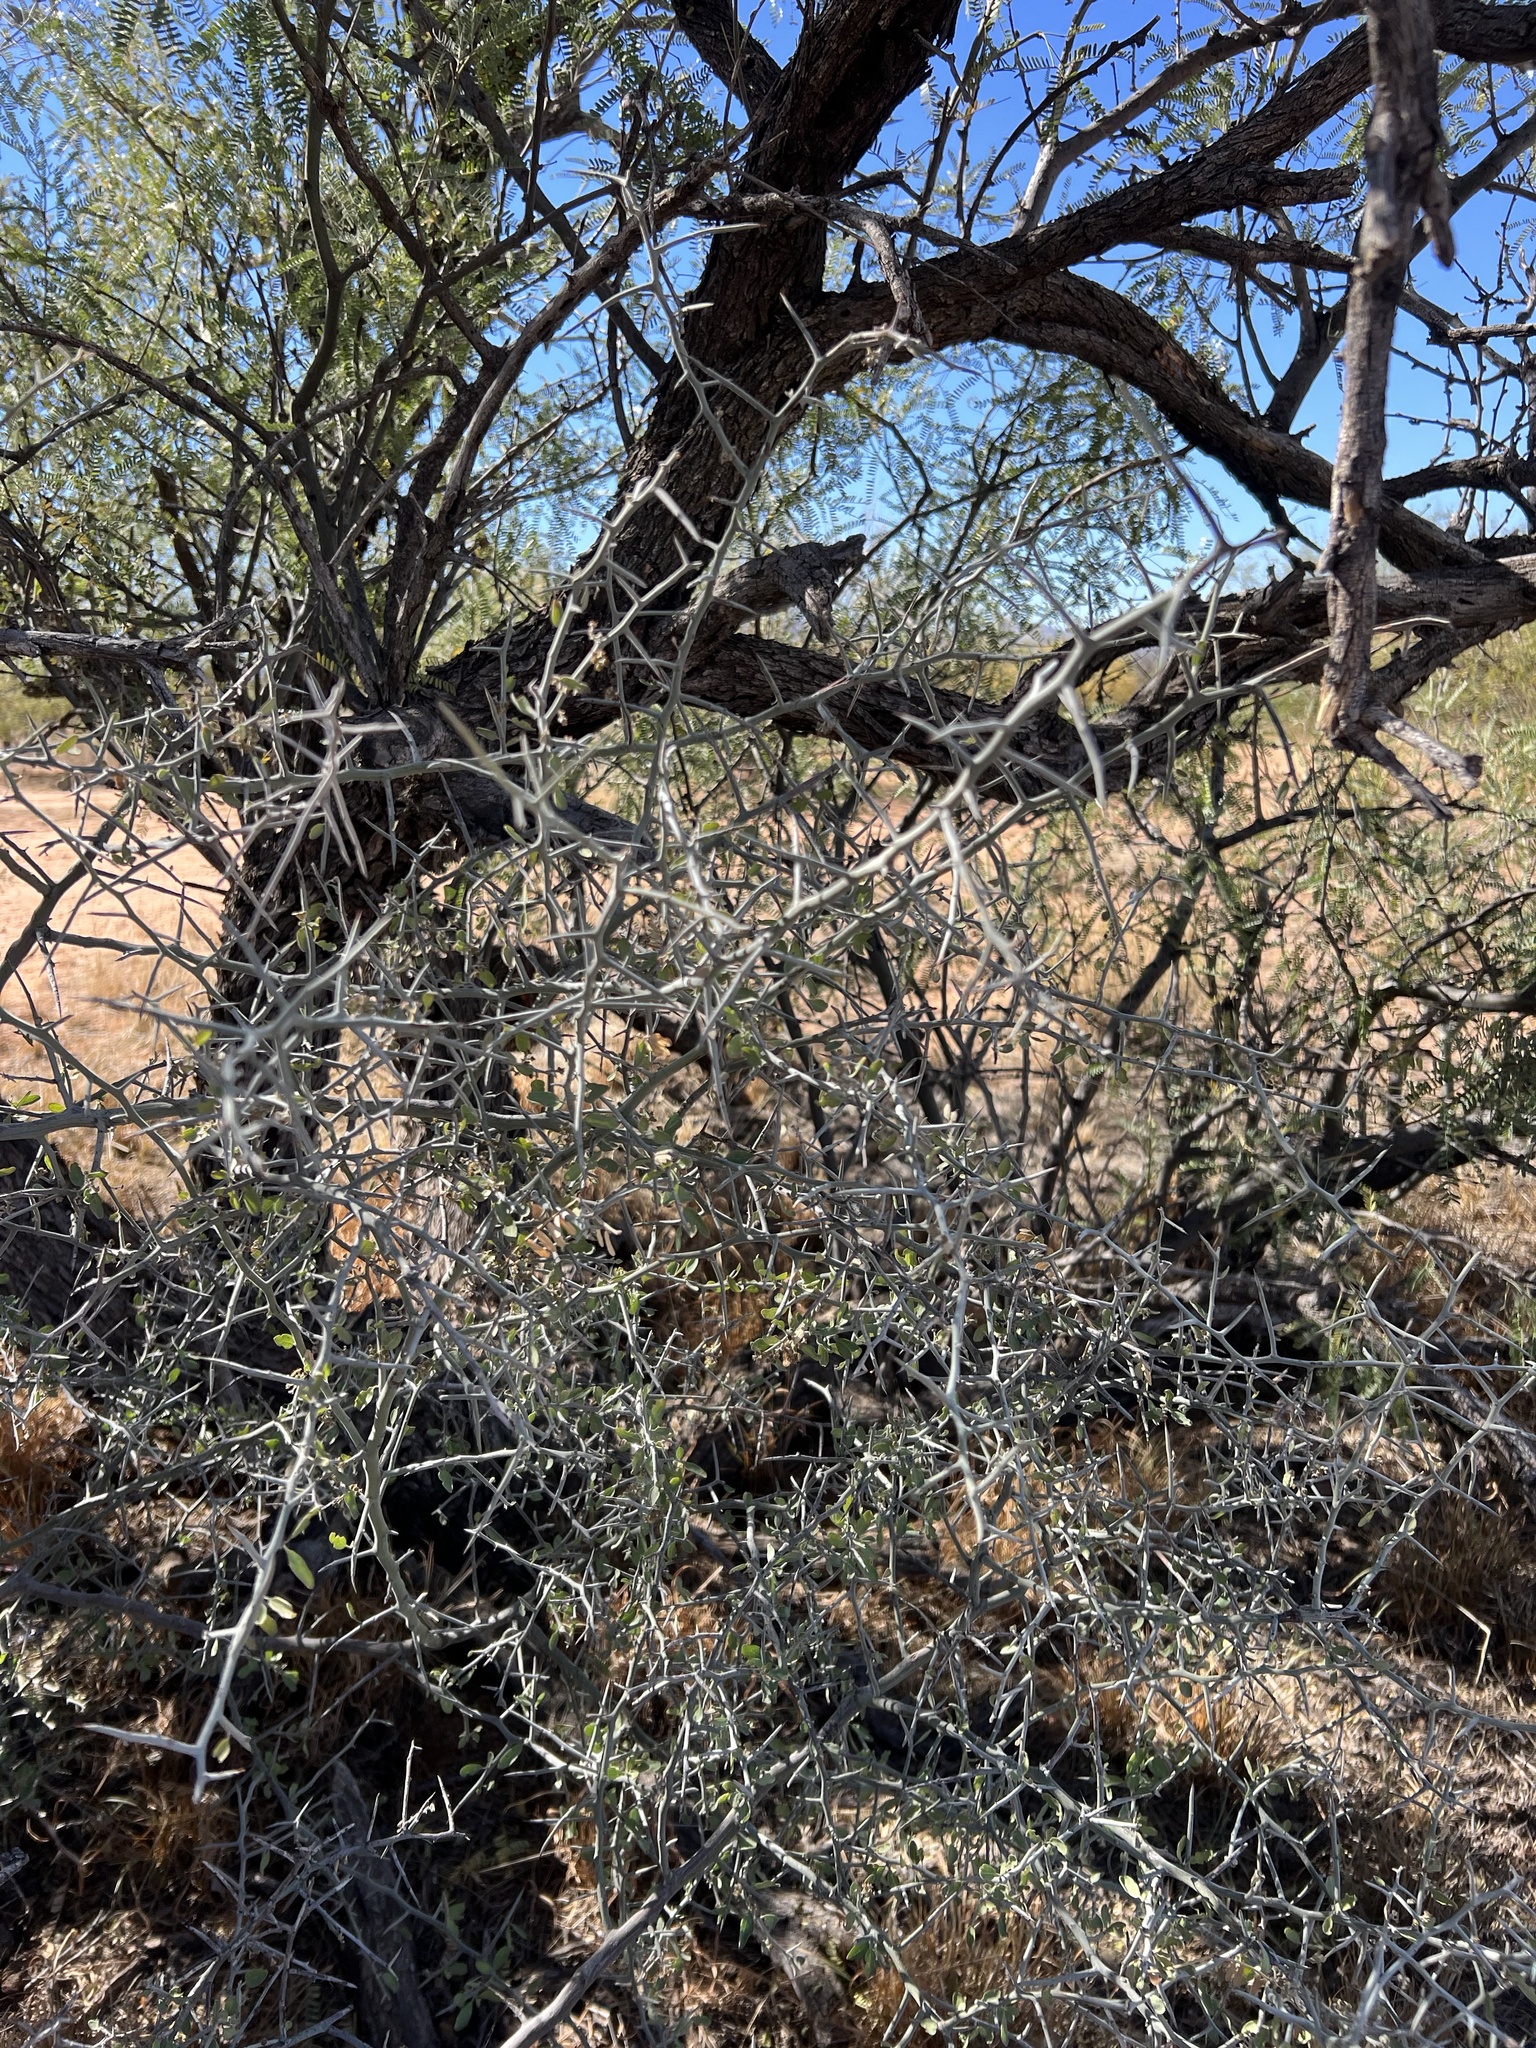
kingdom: Plantae
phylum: Tracheophyta
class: Magnoliopsida
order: Rosales
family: Rhamnaceae
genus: Sarcomphalus
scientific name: Sarcomphalus obtusifolius
